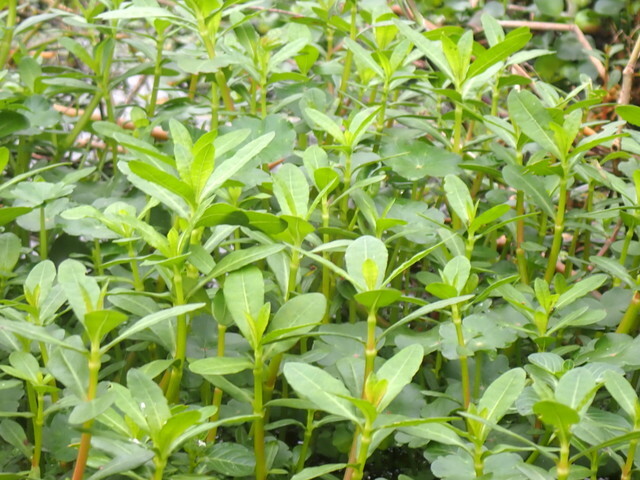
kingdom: Plantae
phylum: Tracheophyta
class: Magnoliopsida
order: Caryophyllales
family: Amaranthaceae
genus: Alternanthera
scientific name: Alternanthera philoxeroides
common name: Alligatorweed
